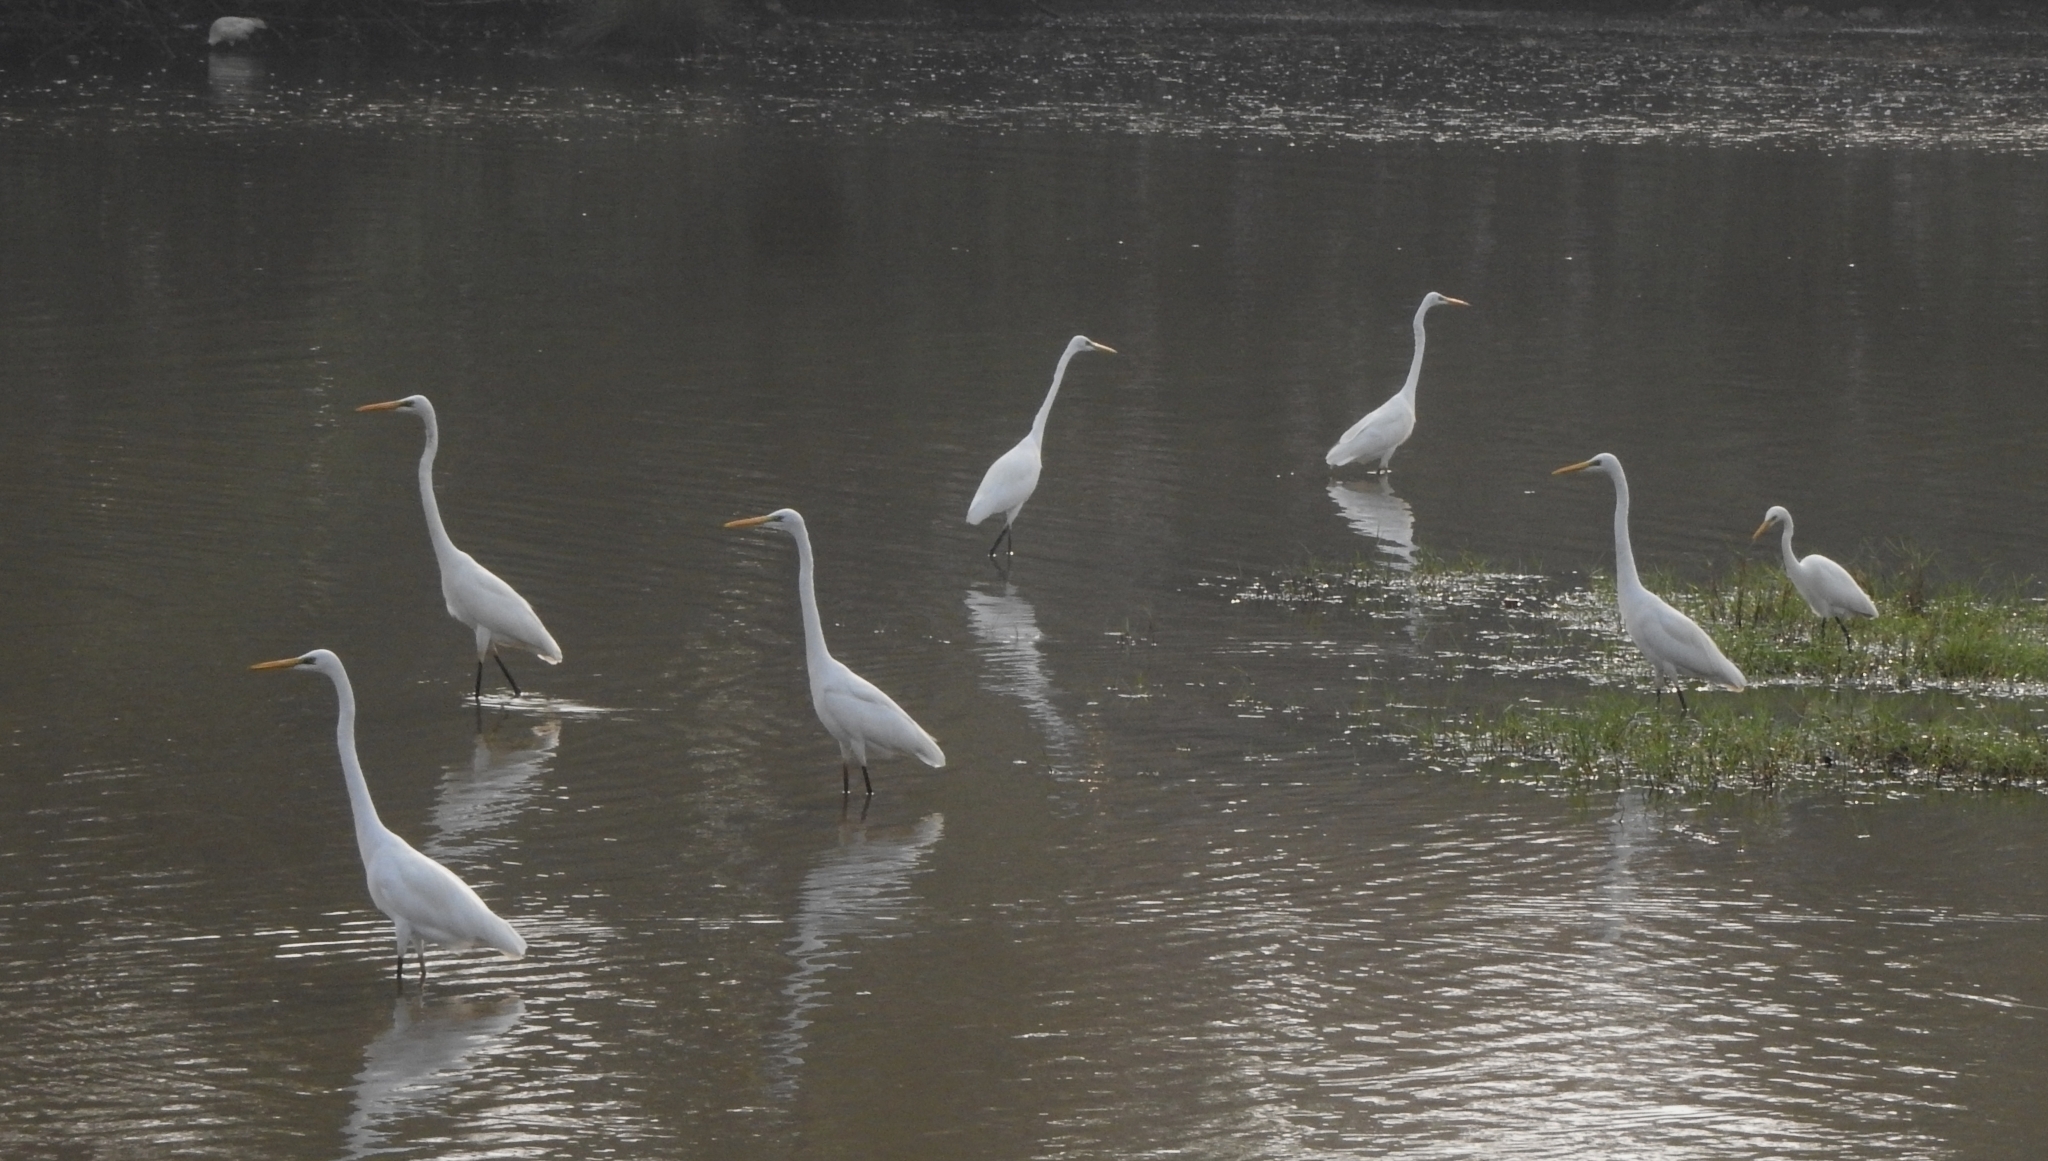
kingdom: Animalia
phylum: Chordata
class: Aves
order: Pelecaniformes
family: Ardeidae
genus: Ardea
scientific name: Ardea alba
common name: Great egret
